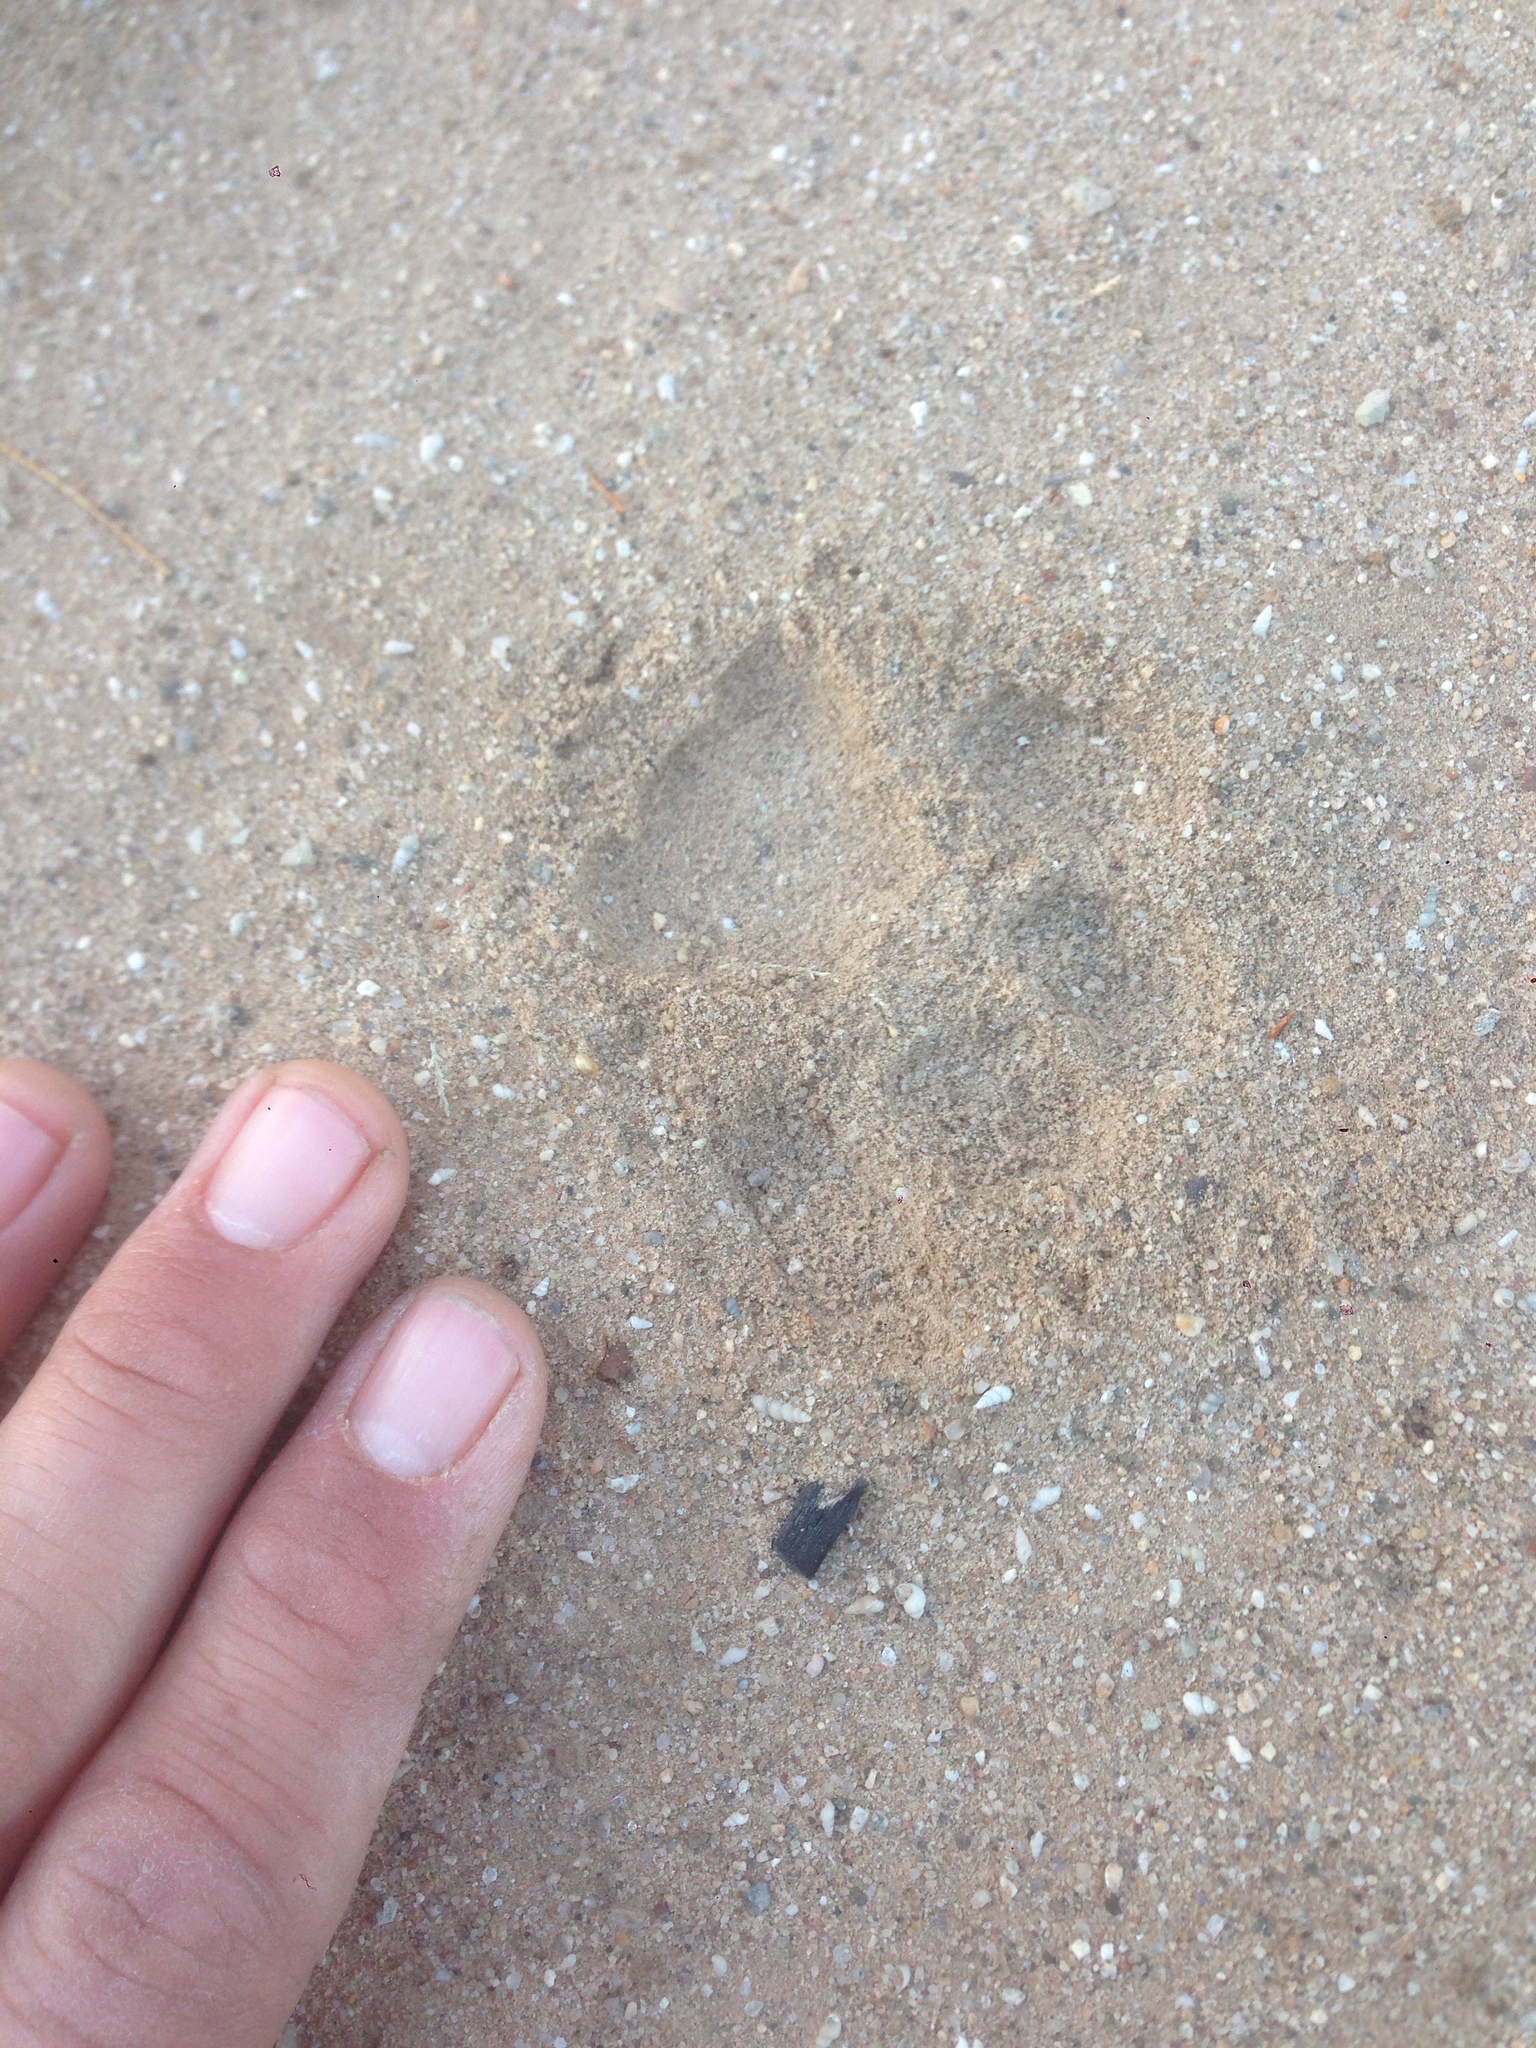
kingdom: Animalia
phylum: Chordata
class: Mammalia
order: Carnivora
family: Felidae
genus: Lynx
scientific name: Lynx rufus
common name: Bobcat
